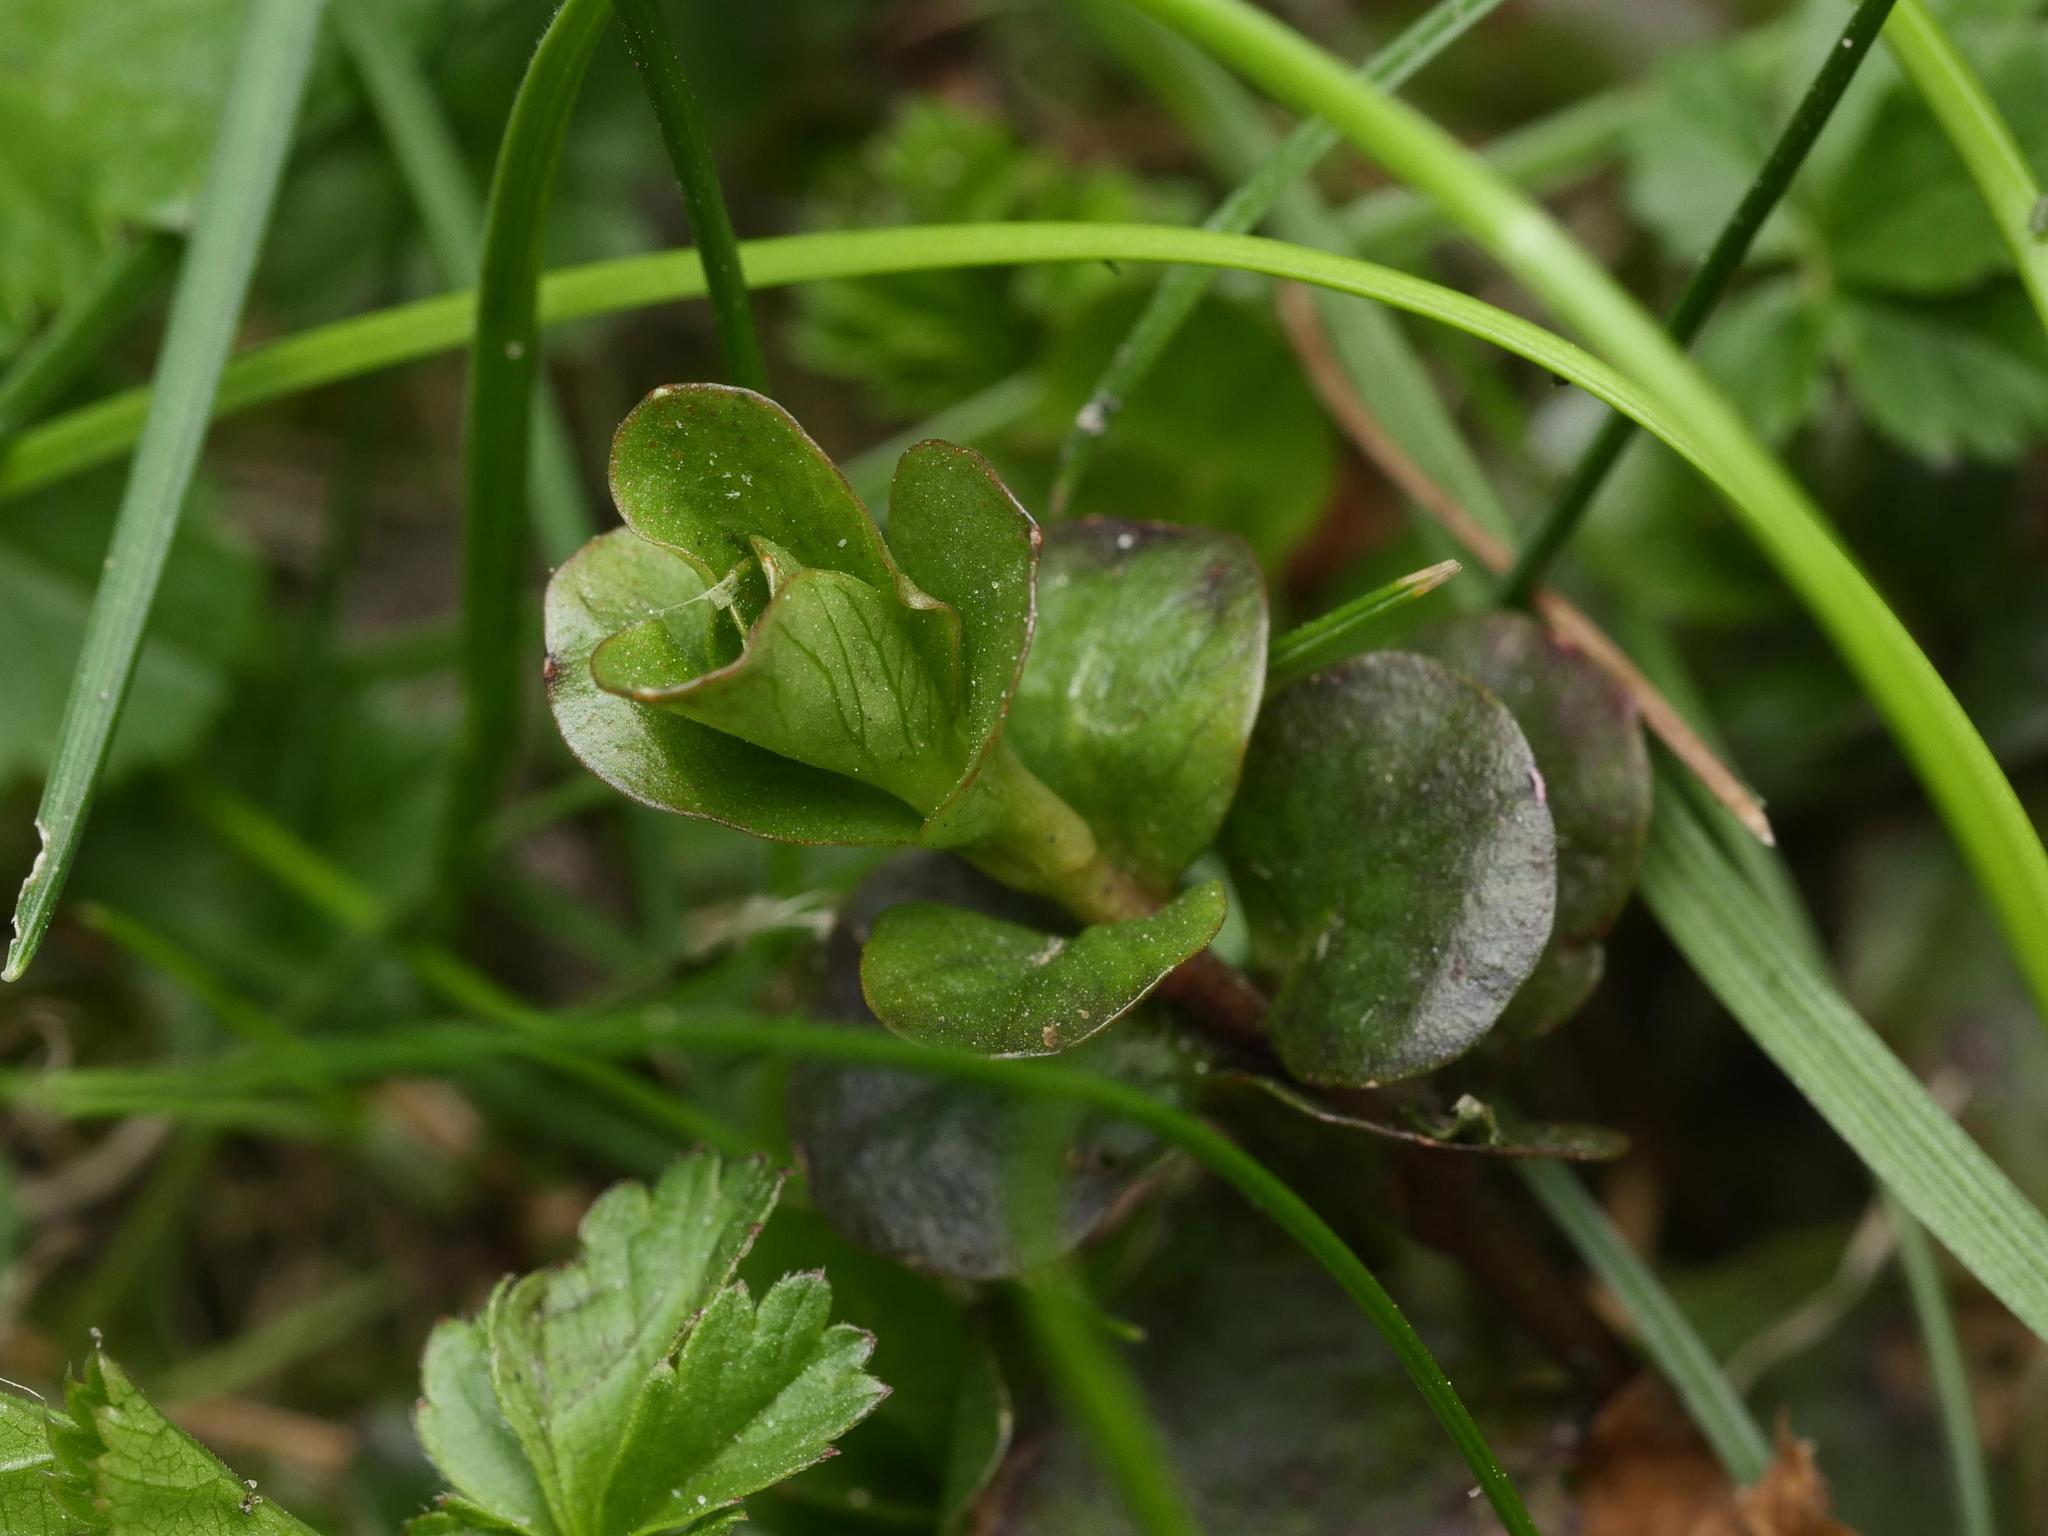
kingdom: Plantae
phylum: Tracheophyta
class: Magnoliopsida
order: Ericales
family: Primulaceae
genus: Lysimachia
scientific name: Lysimachia nummularia
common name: Moneywort
